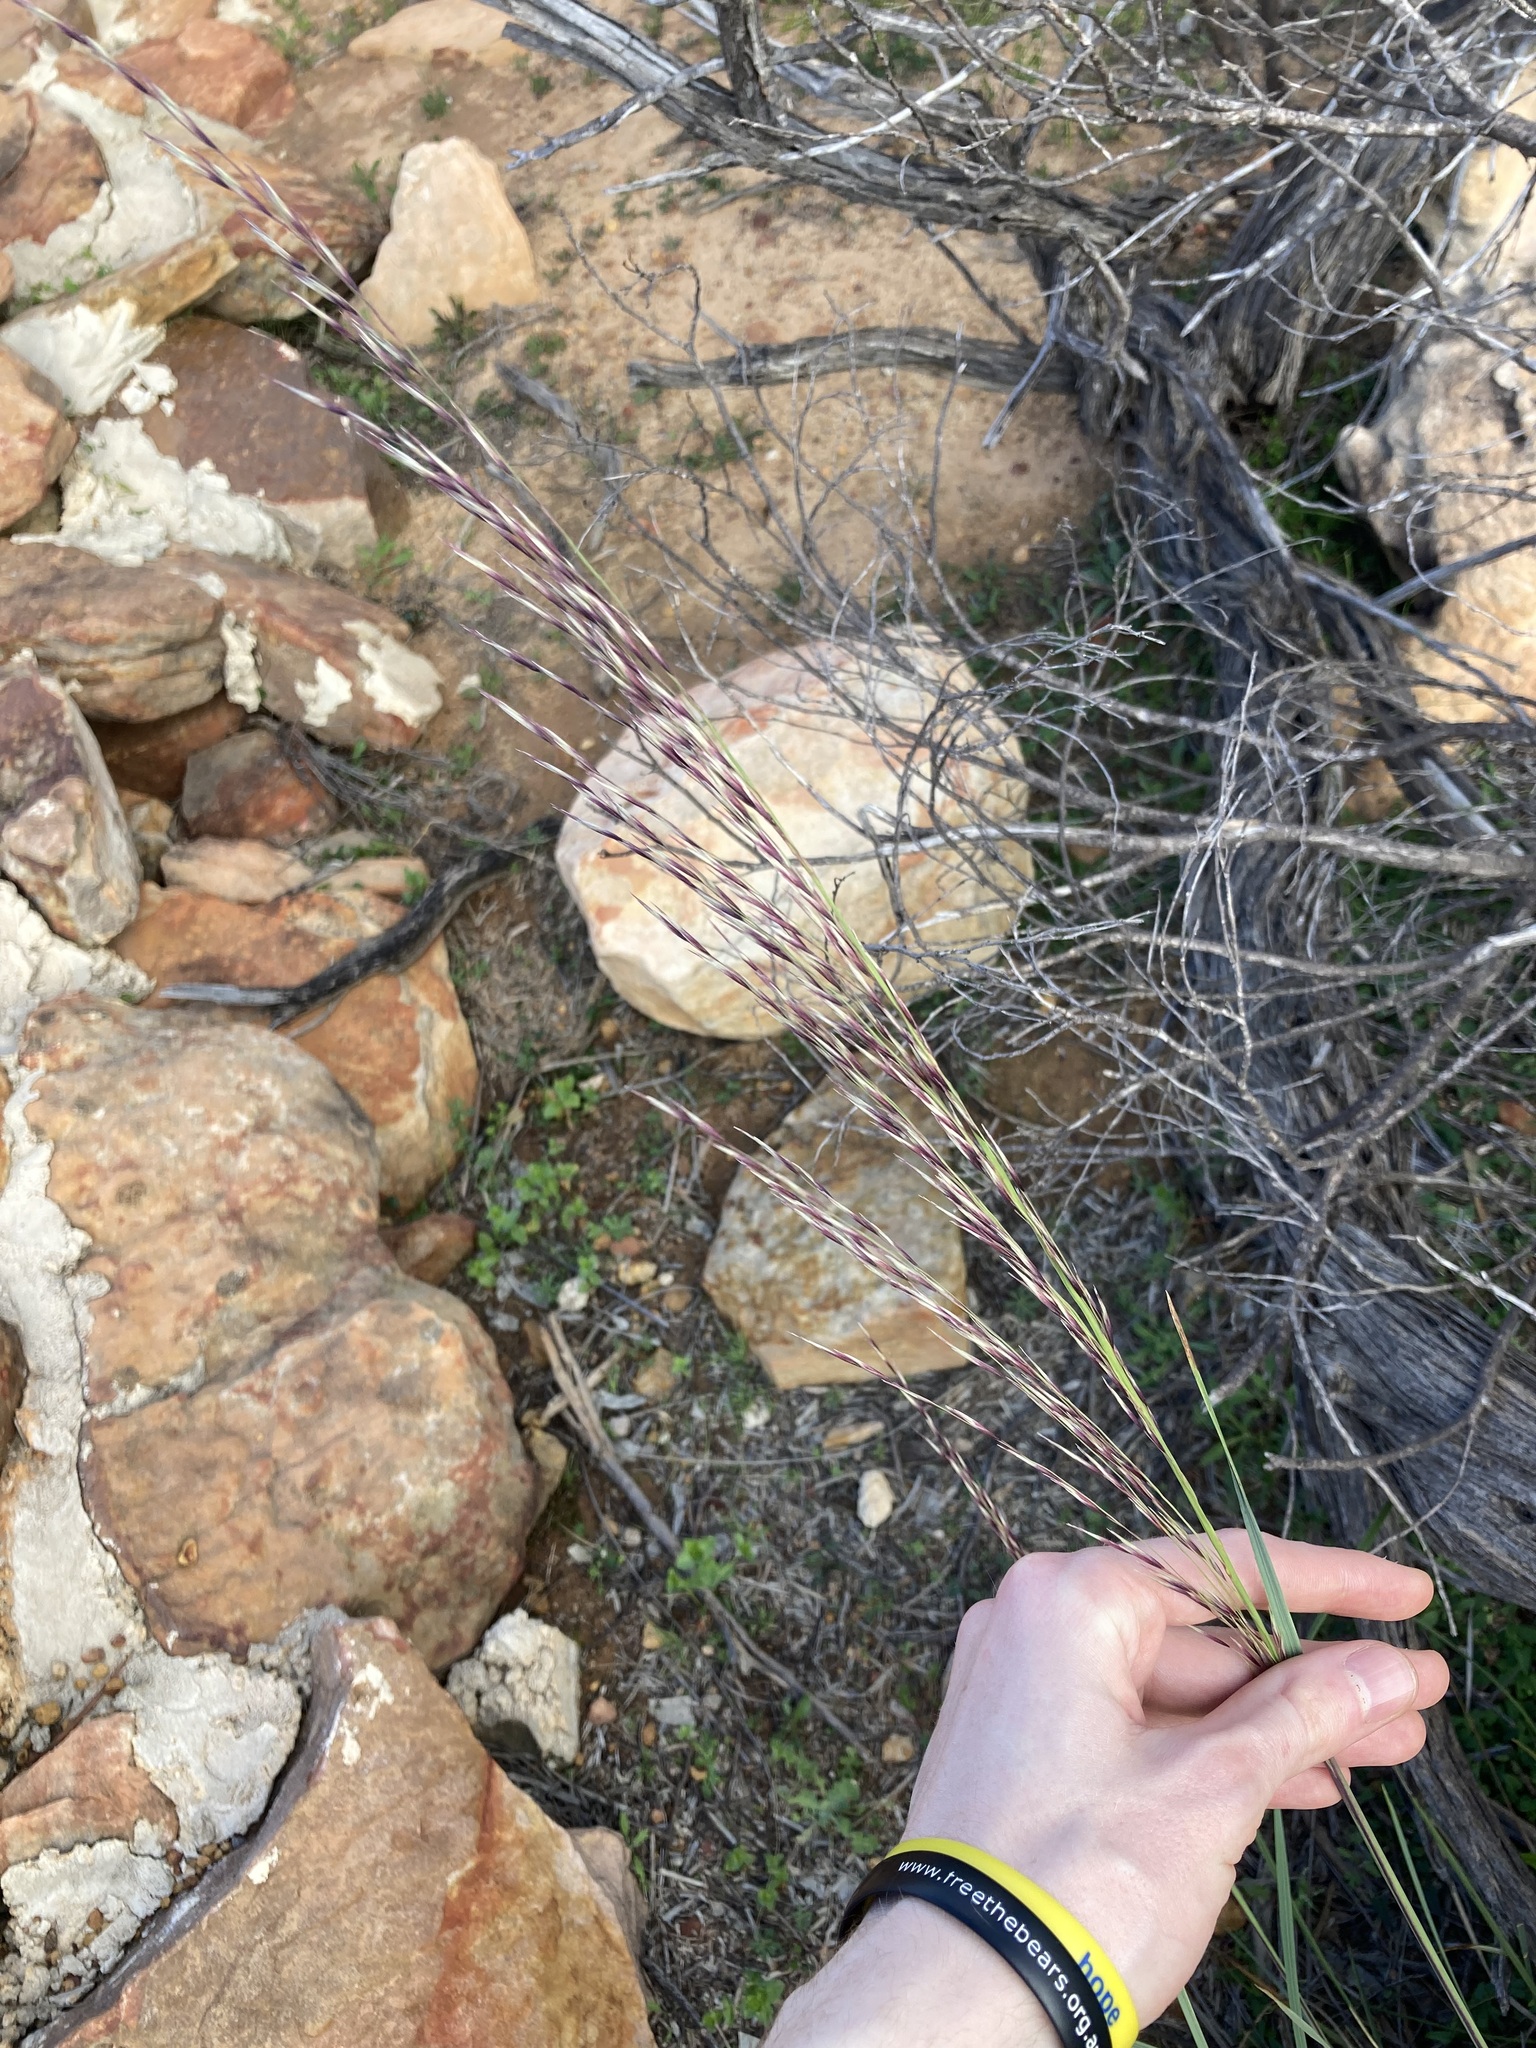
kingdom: Plantae
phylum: Tracheophyta
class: Liliopsida
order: Poales
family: Poaceae
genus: Triodia
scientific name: Triodia dielsii
